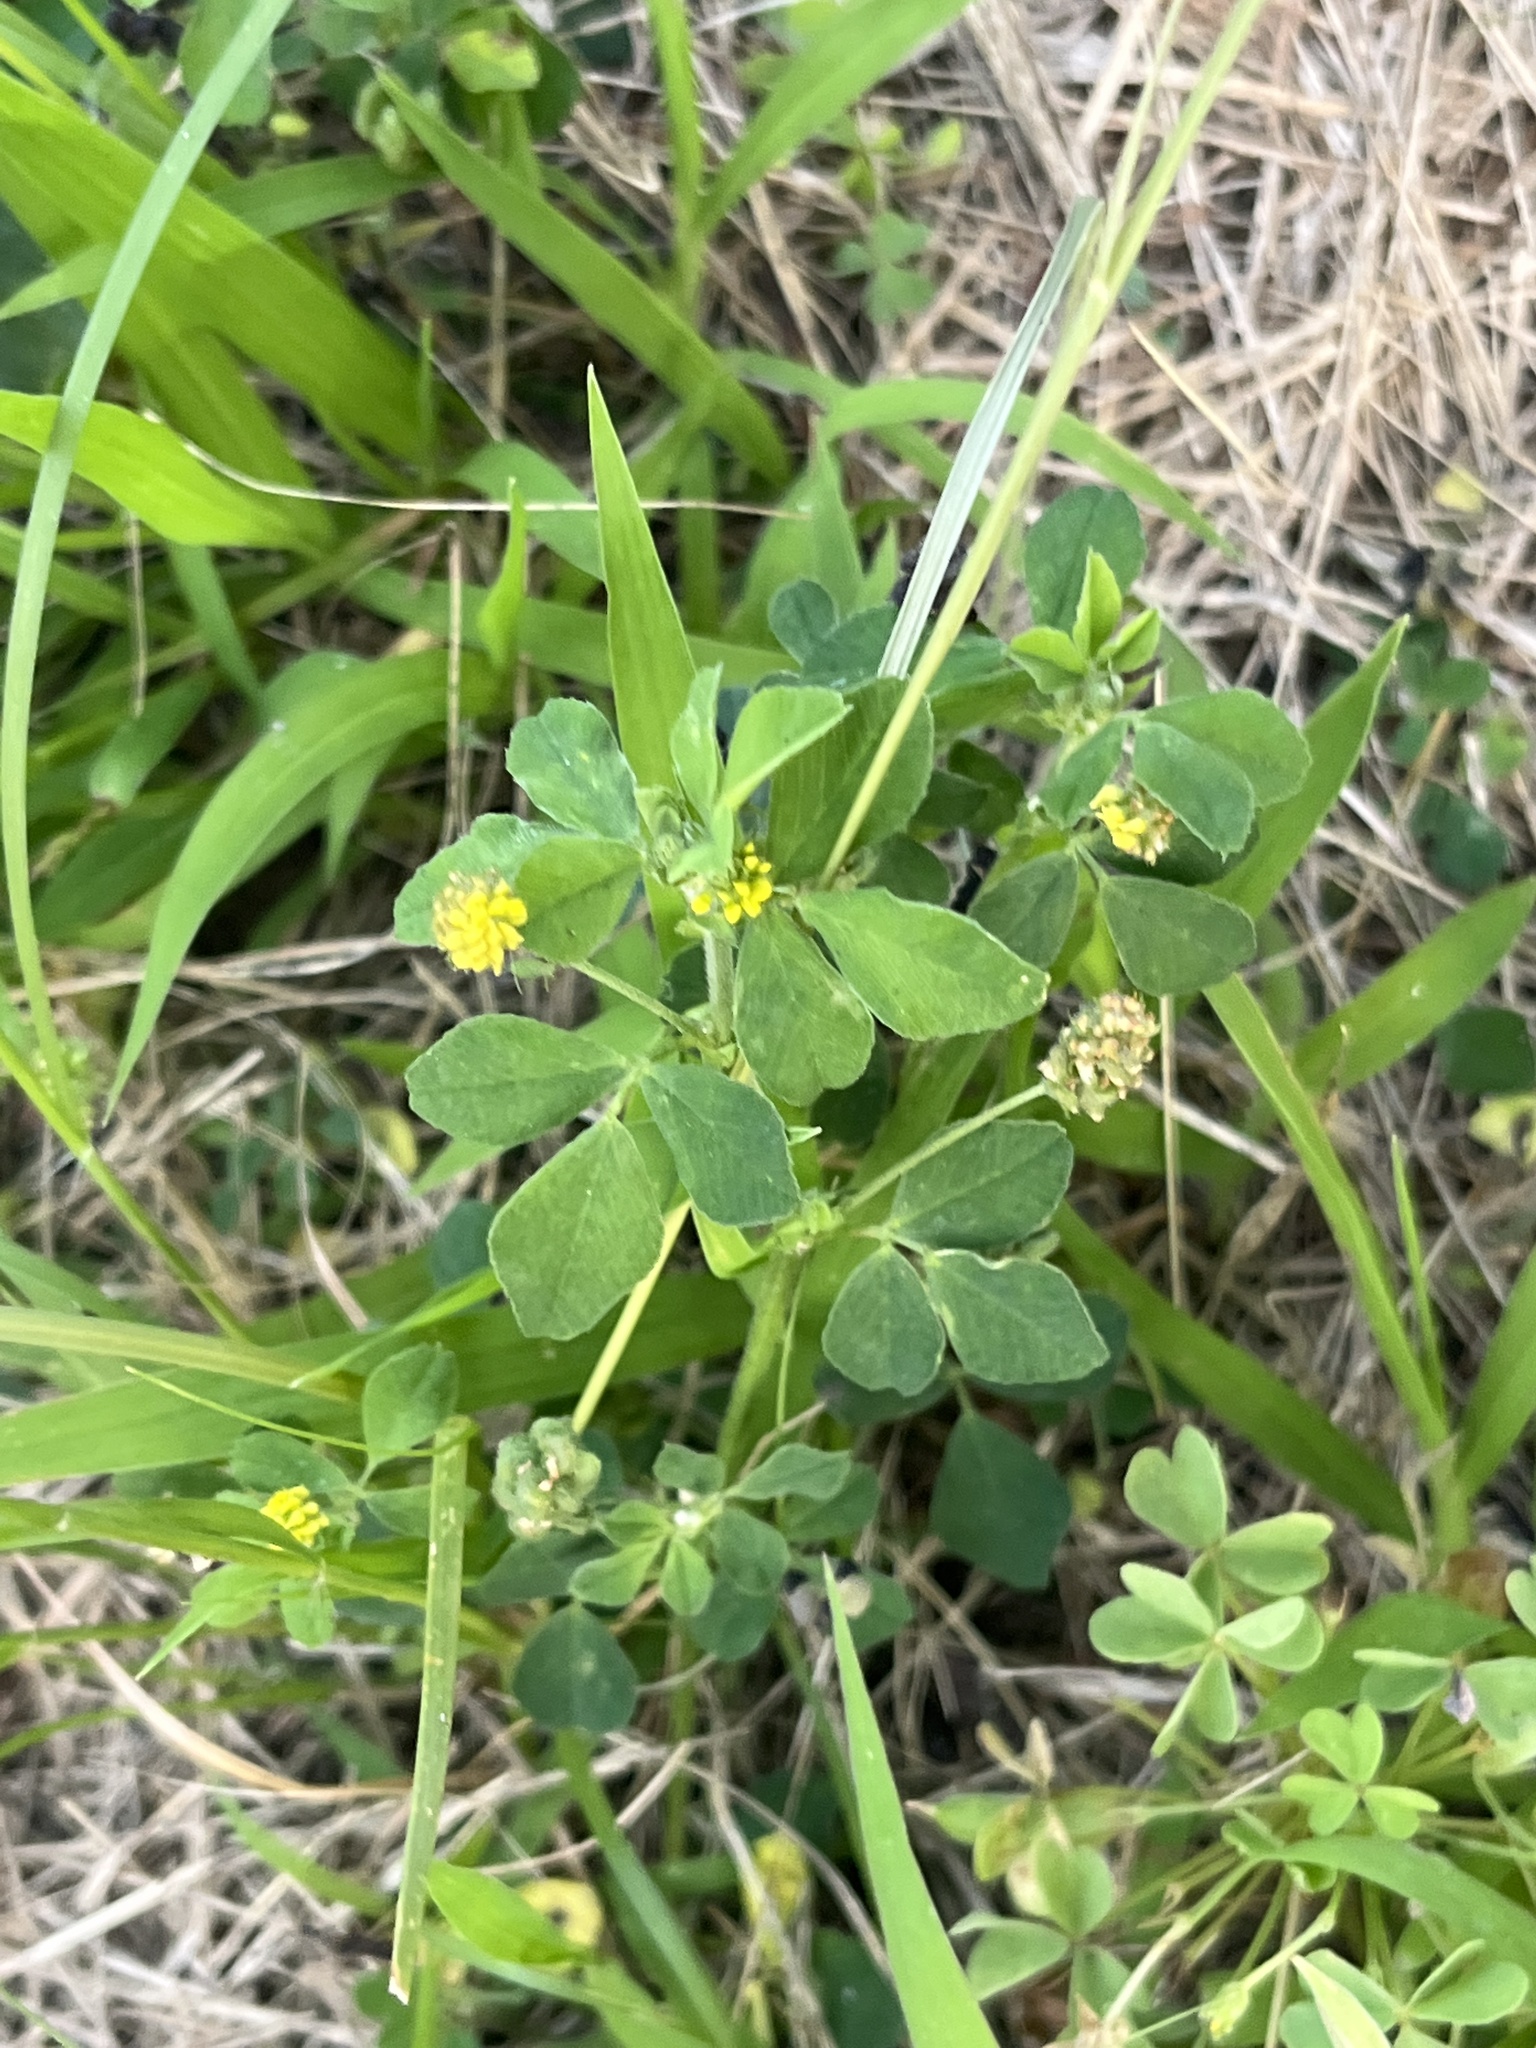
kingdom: Plantae
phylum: Tracheophyta
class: Magnoliopsida
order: Fabales
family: Fabaceae
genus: Medicago
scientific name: Medicago lupulina
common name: Black medick
